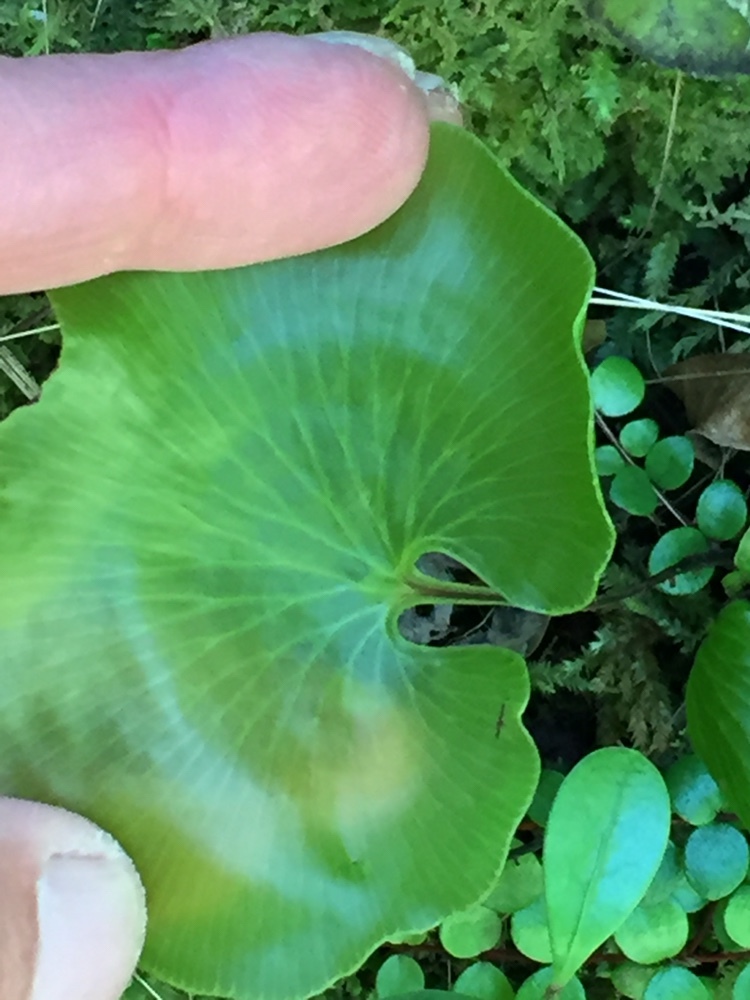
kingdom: Plantae
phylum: Tracheophyta
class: Polypodiopsida
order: Hymenophyllales
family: Hymenophyllaceae
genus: Hymenophyllum
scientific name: Hymenophyllum nephrophyllum
